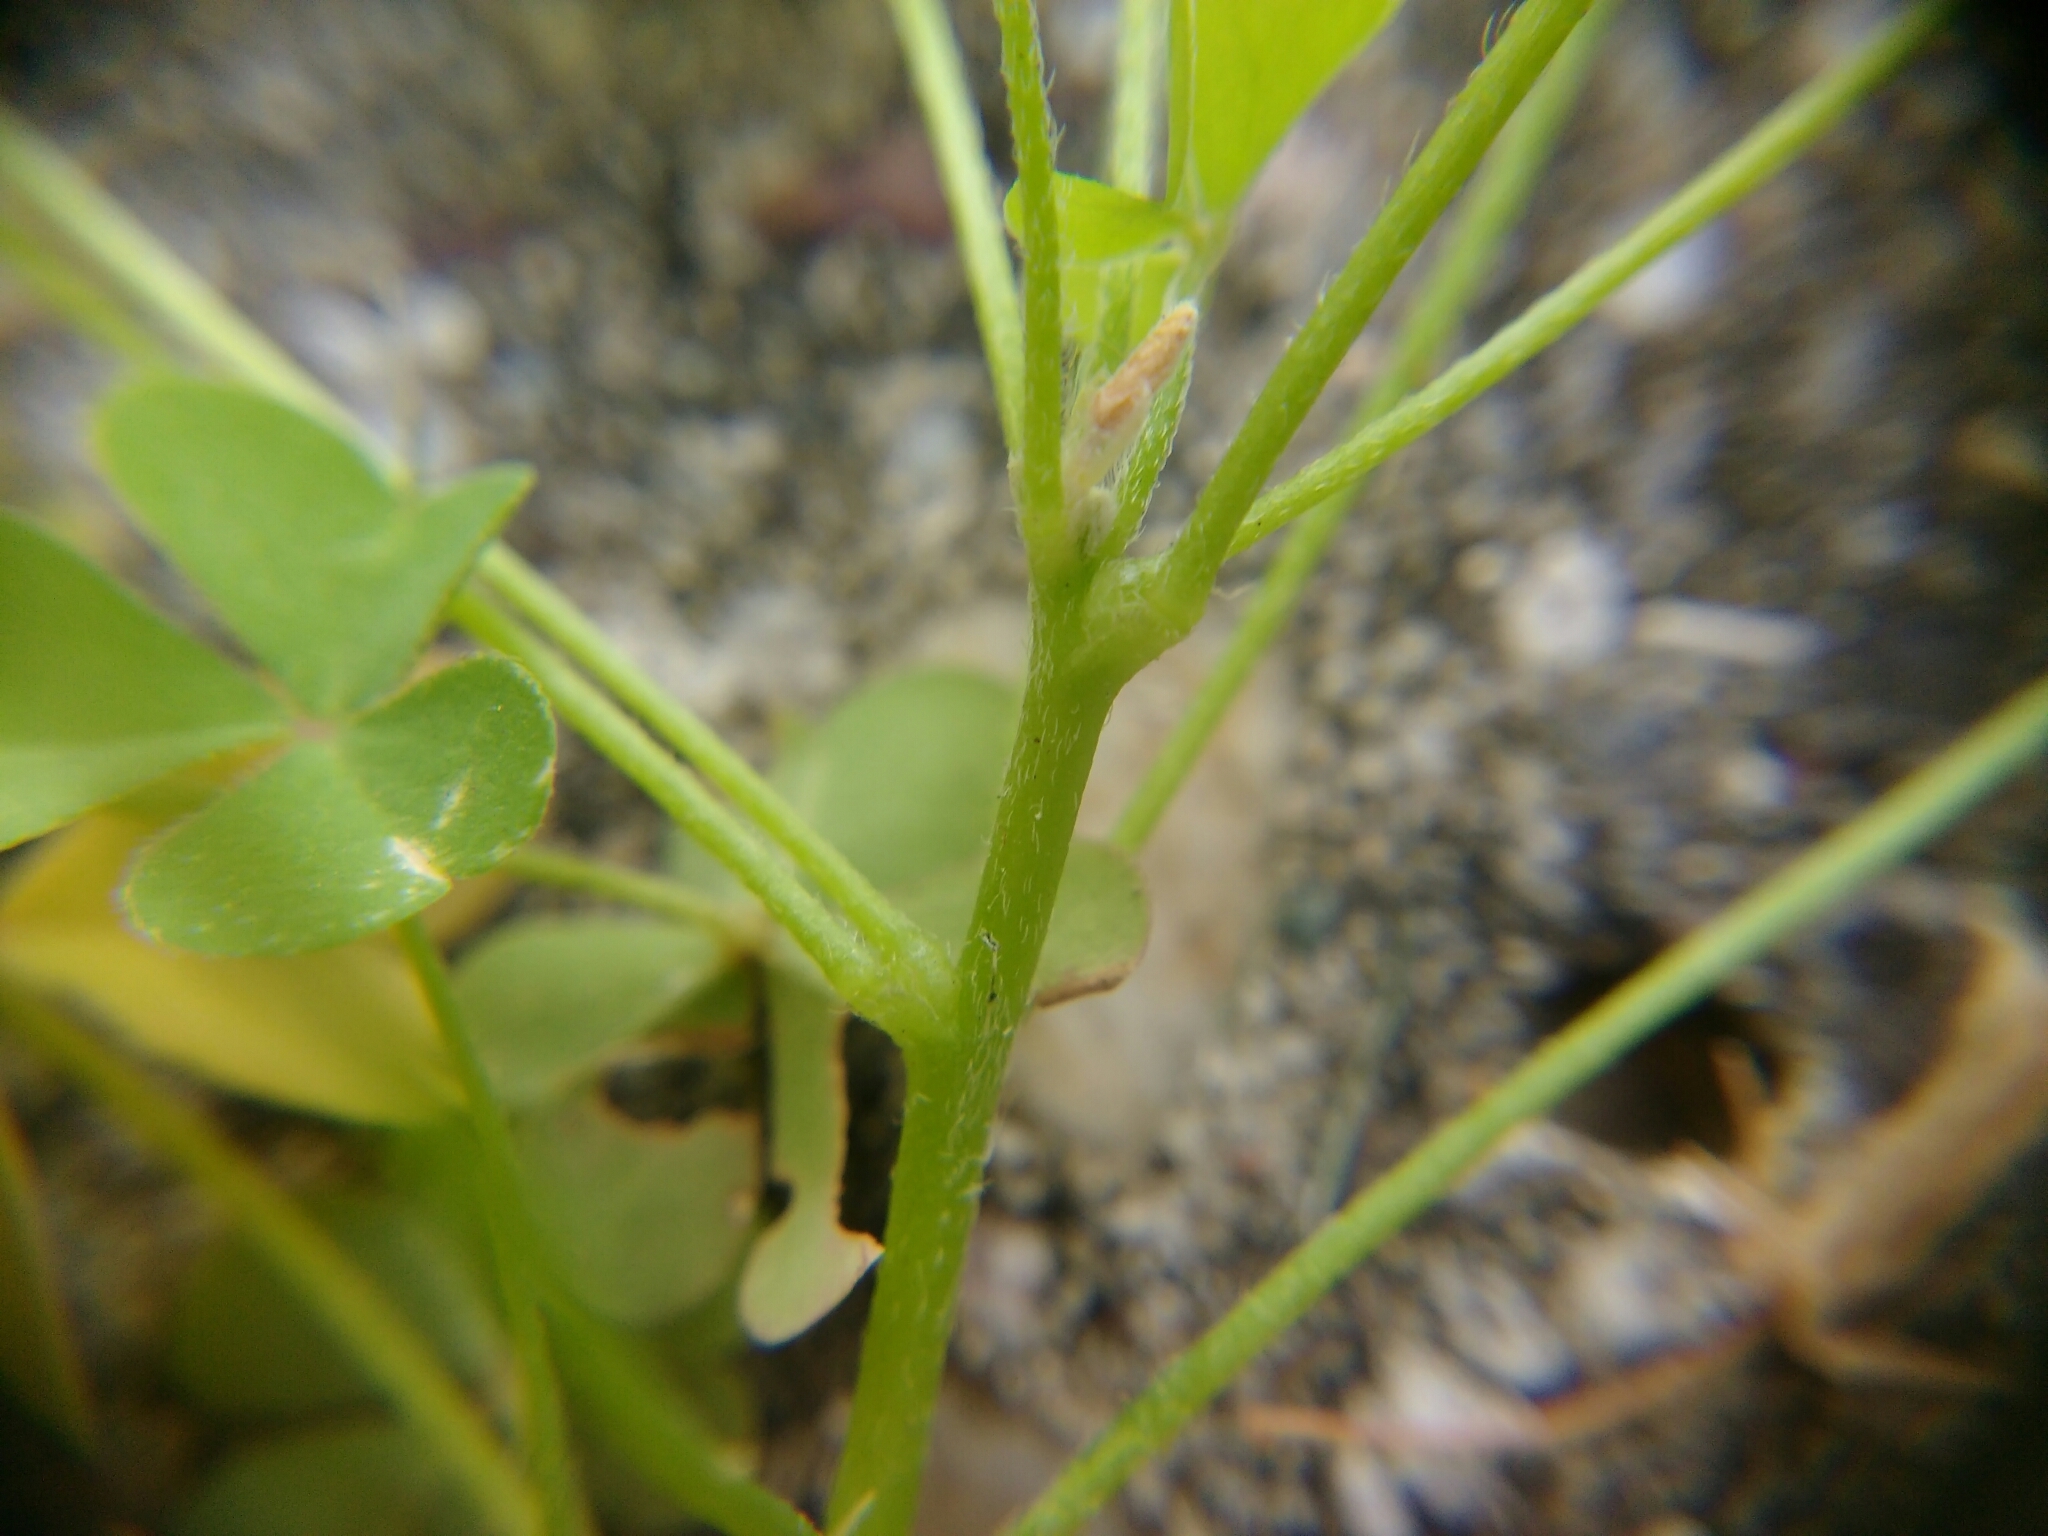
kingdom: Plantae
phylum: Tracheophyta
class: Magnoliopsida
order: Oxalidales
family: Oxalidaceae
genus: Oxalis
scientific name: Oxalis dillenii
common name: Sussex yellow-sorrel
